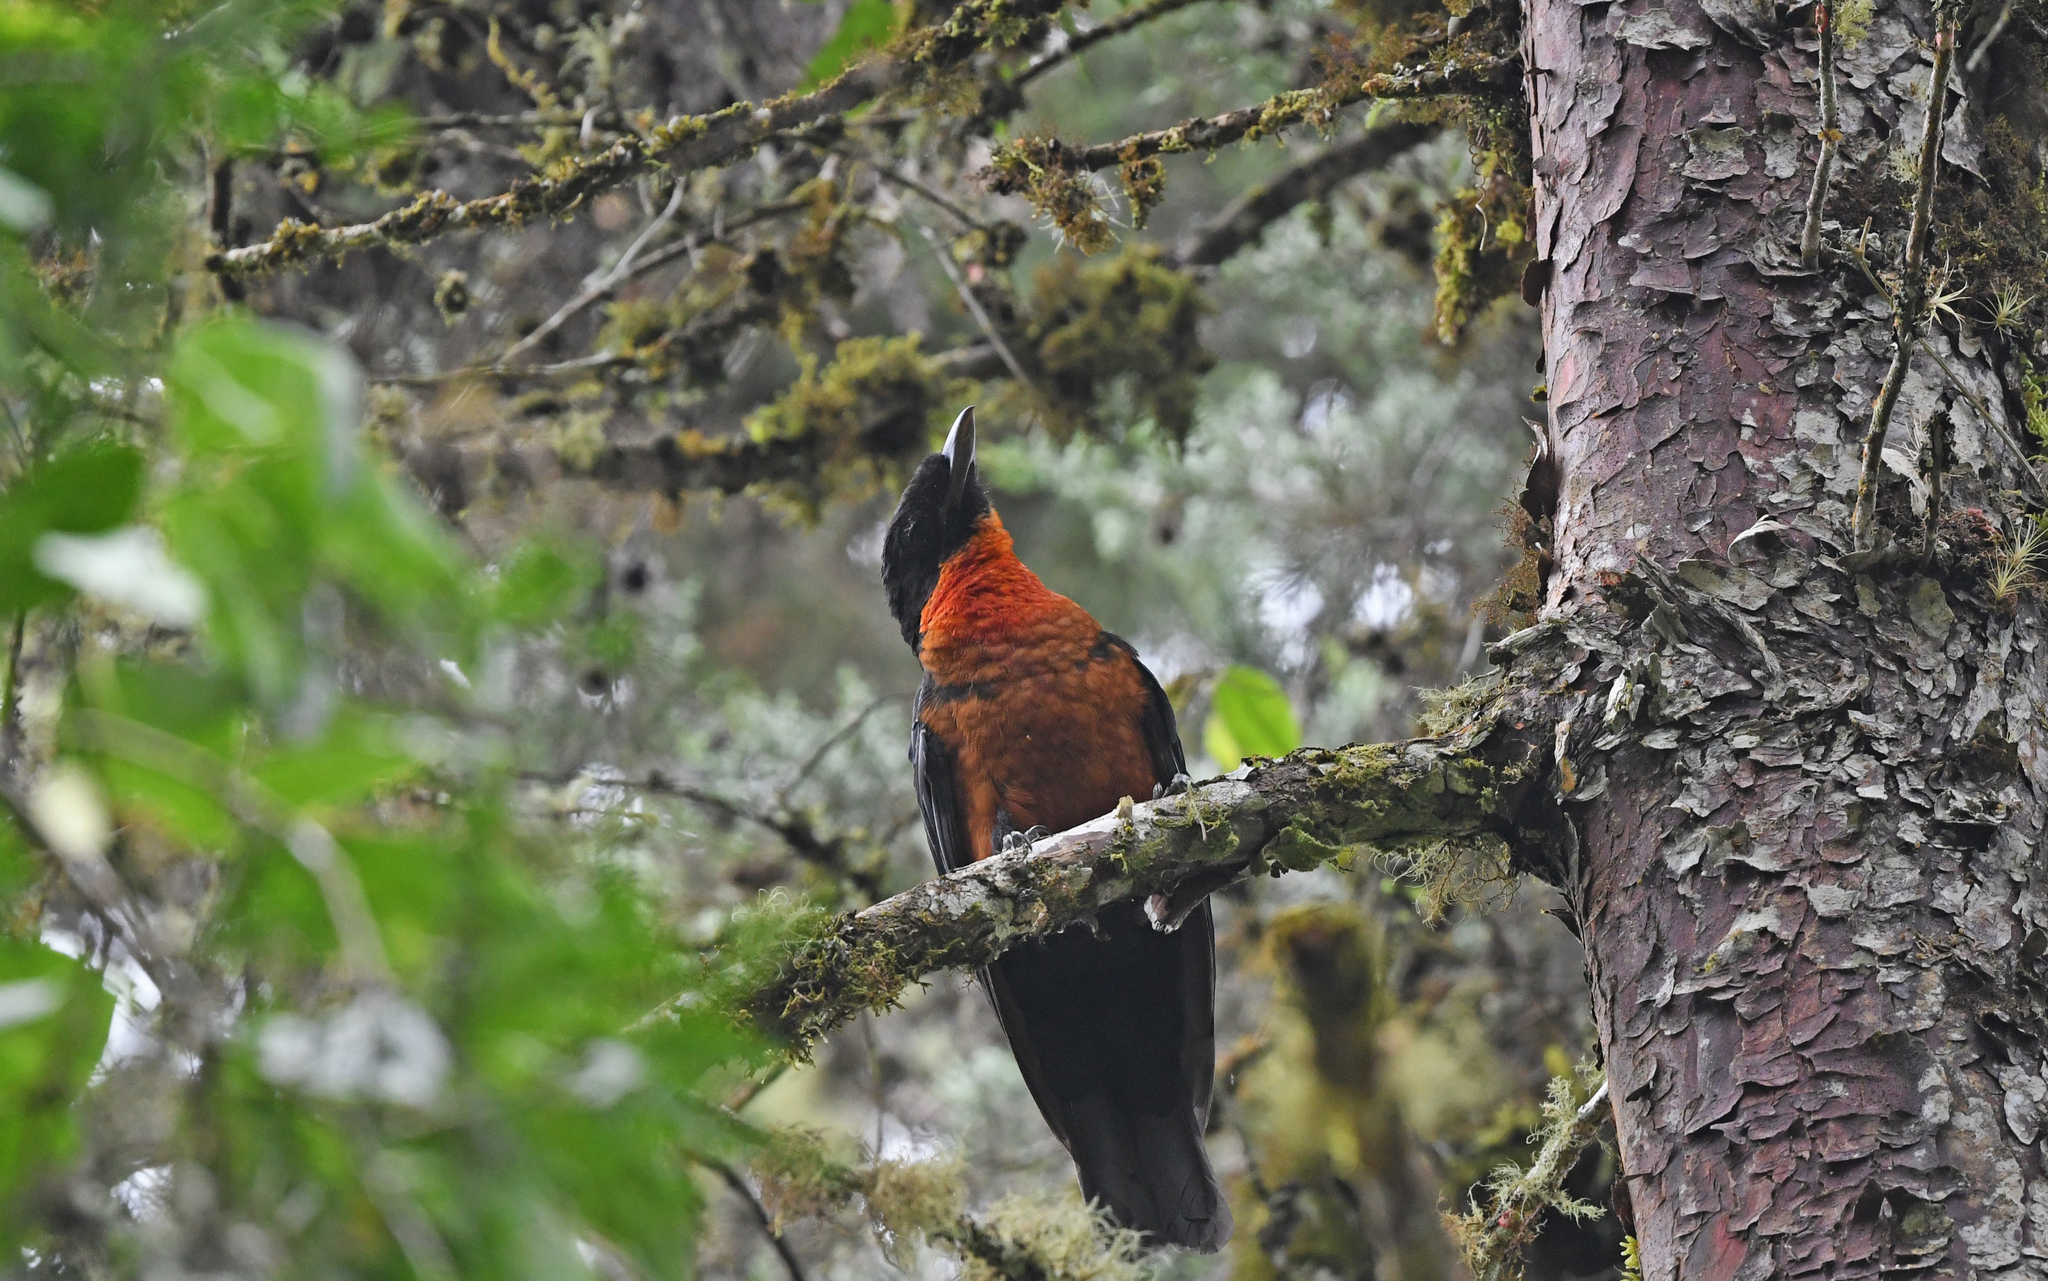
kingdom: Animalia
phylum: Chordata
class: Aves
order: Passeriformes
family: Cotingidae
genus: Pyroderus
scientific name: Pyroderus scutatus
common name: Red-ruffed fruitcrow
